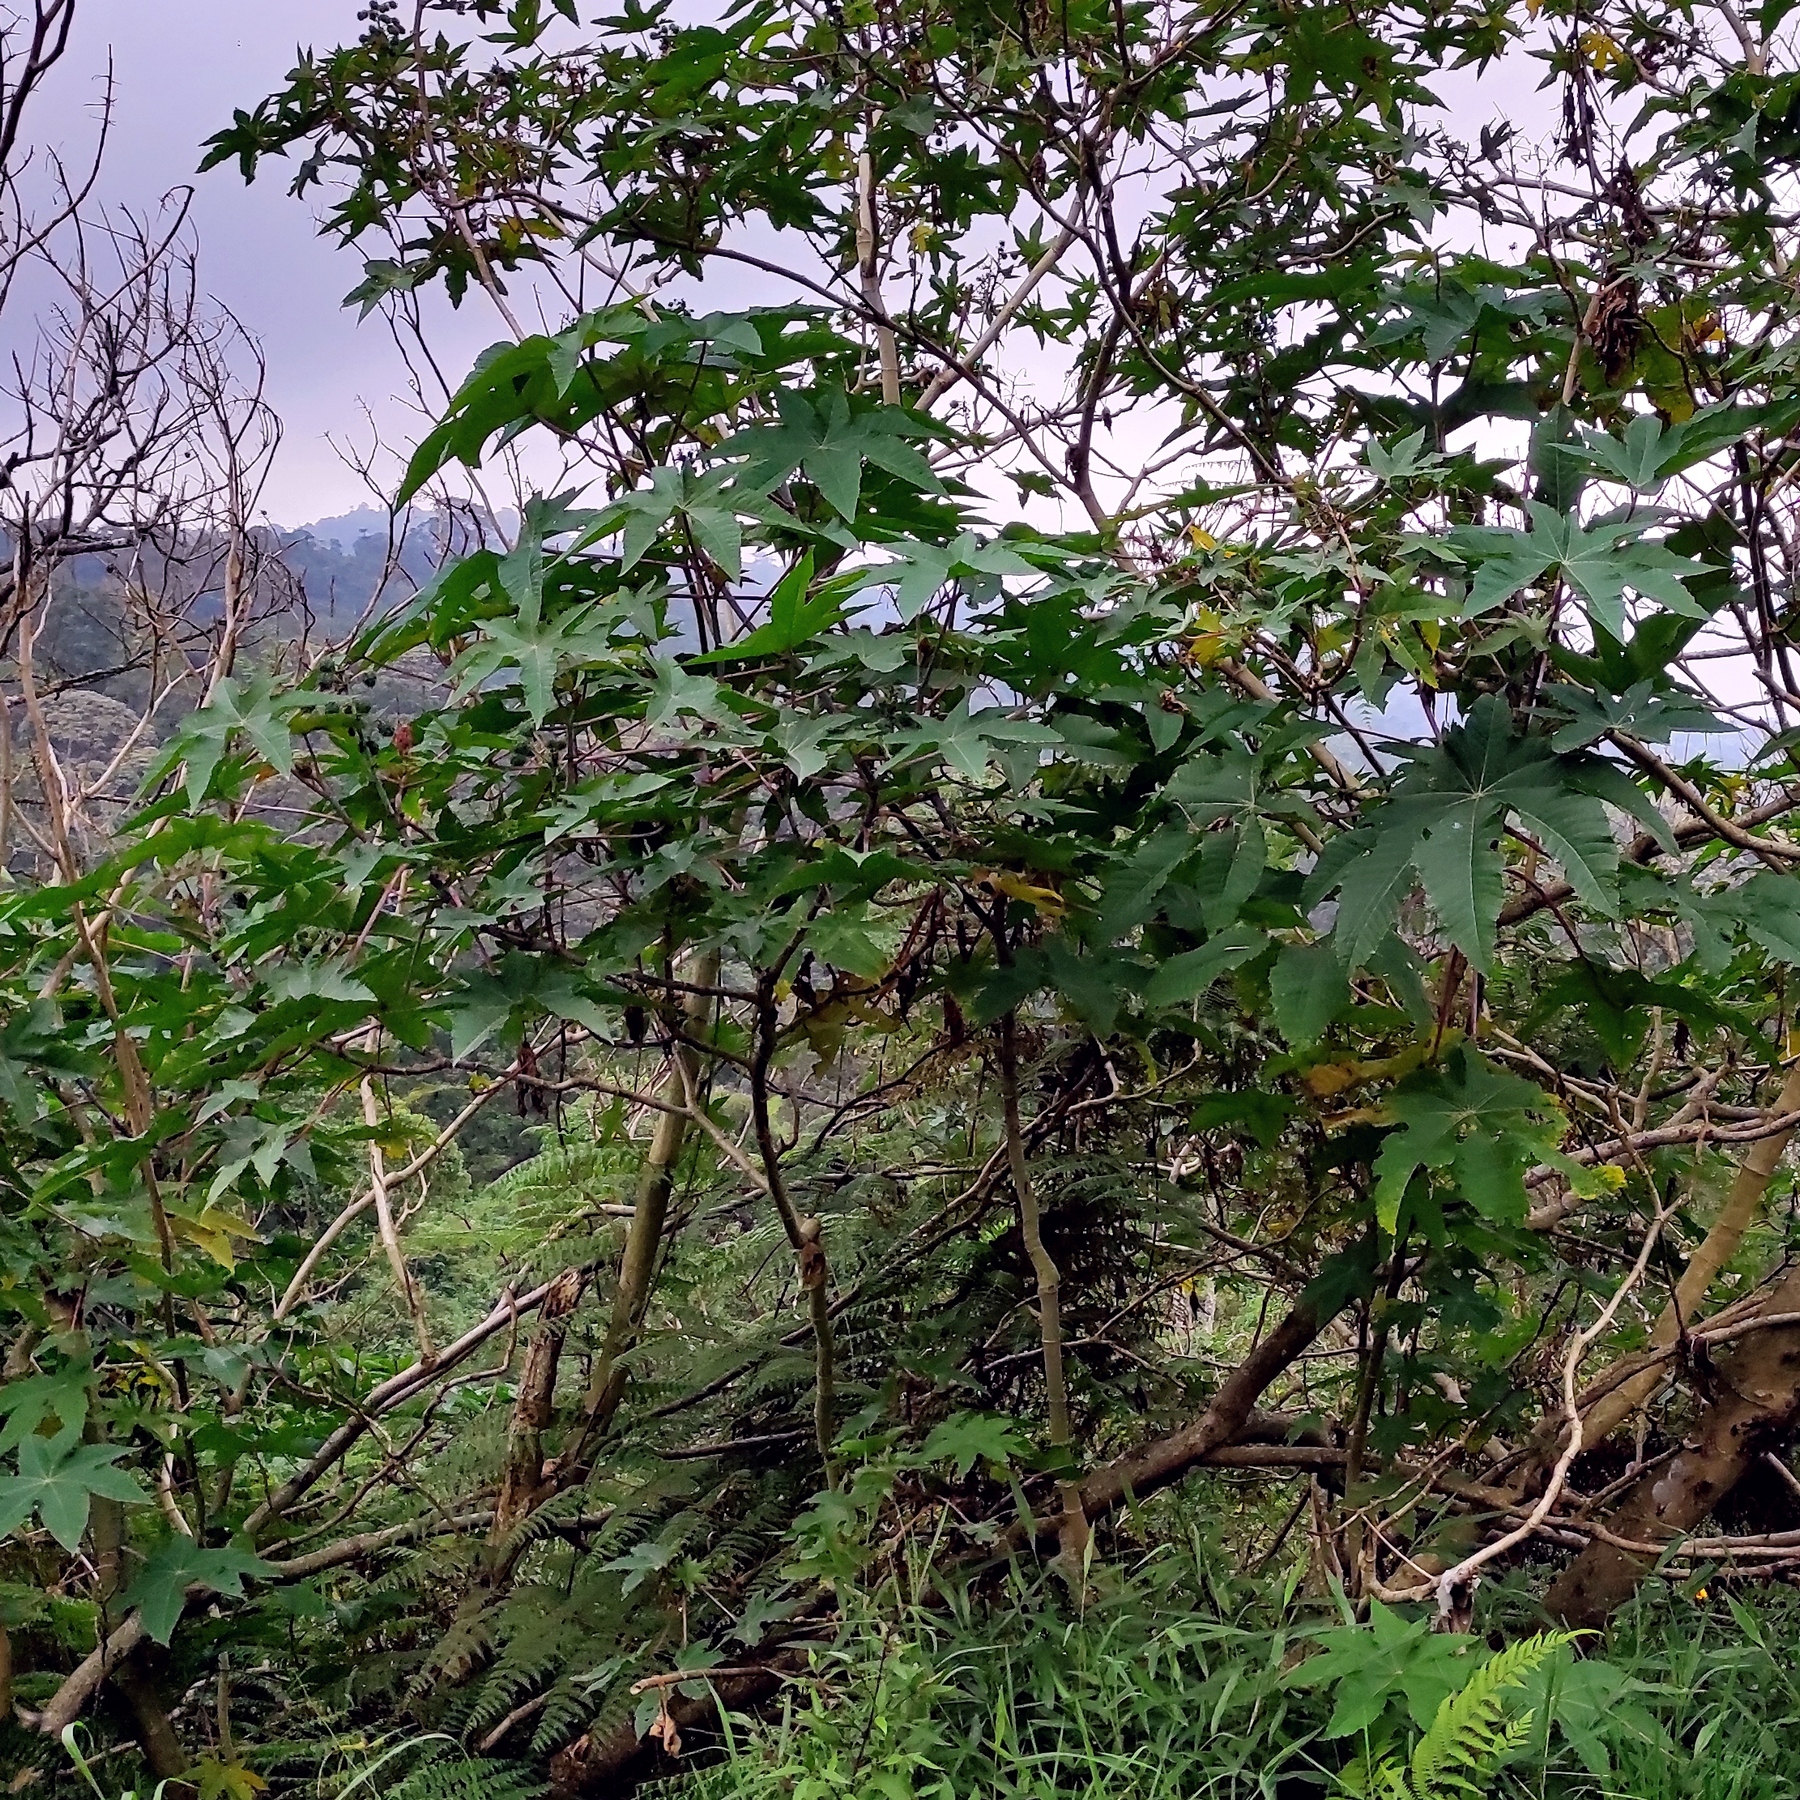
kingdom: Plantae
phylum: Tracheophyta
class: Magnoliopsida
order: Malpighiales
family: Euphorbiaceae
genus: Ricinus
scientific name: Ricinus communis
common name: Castor-oil-plant
